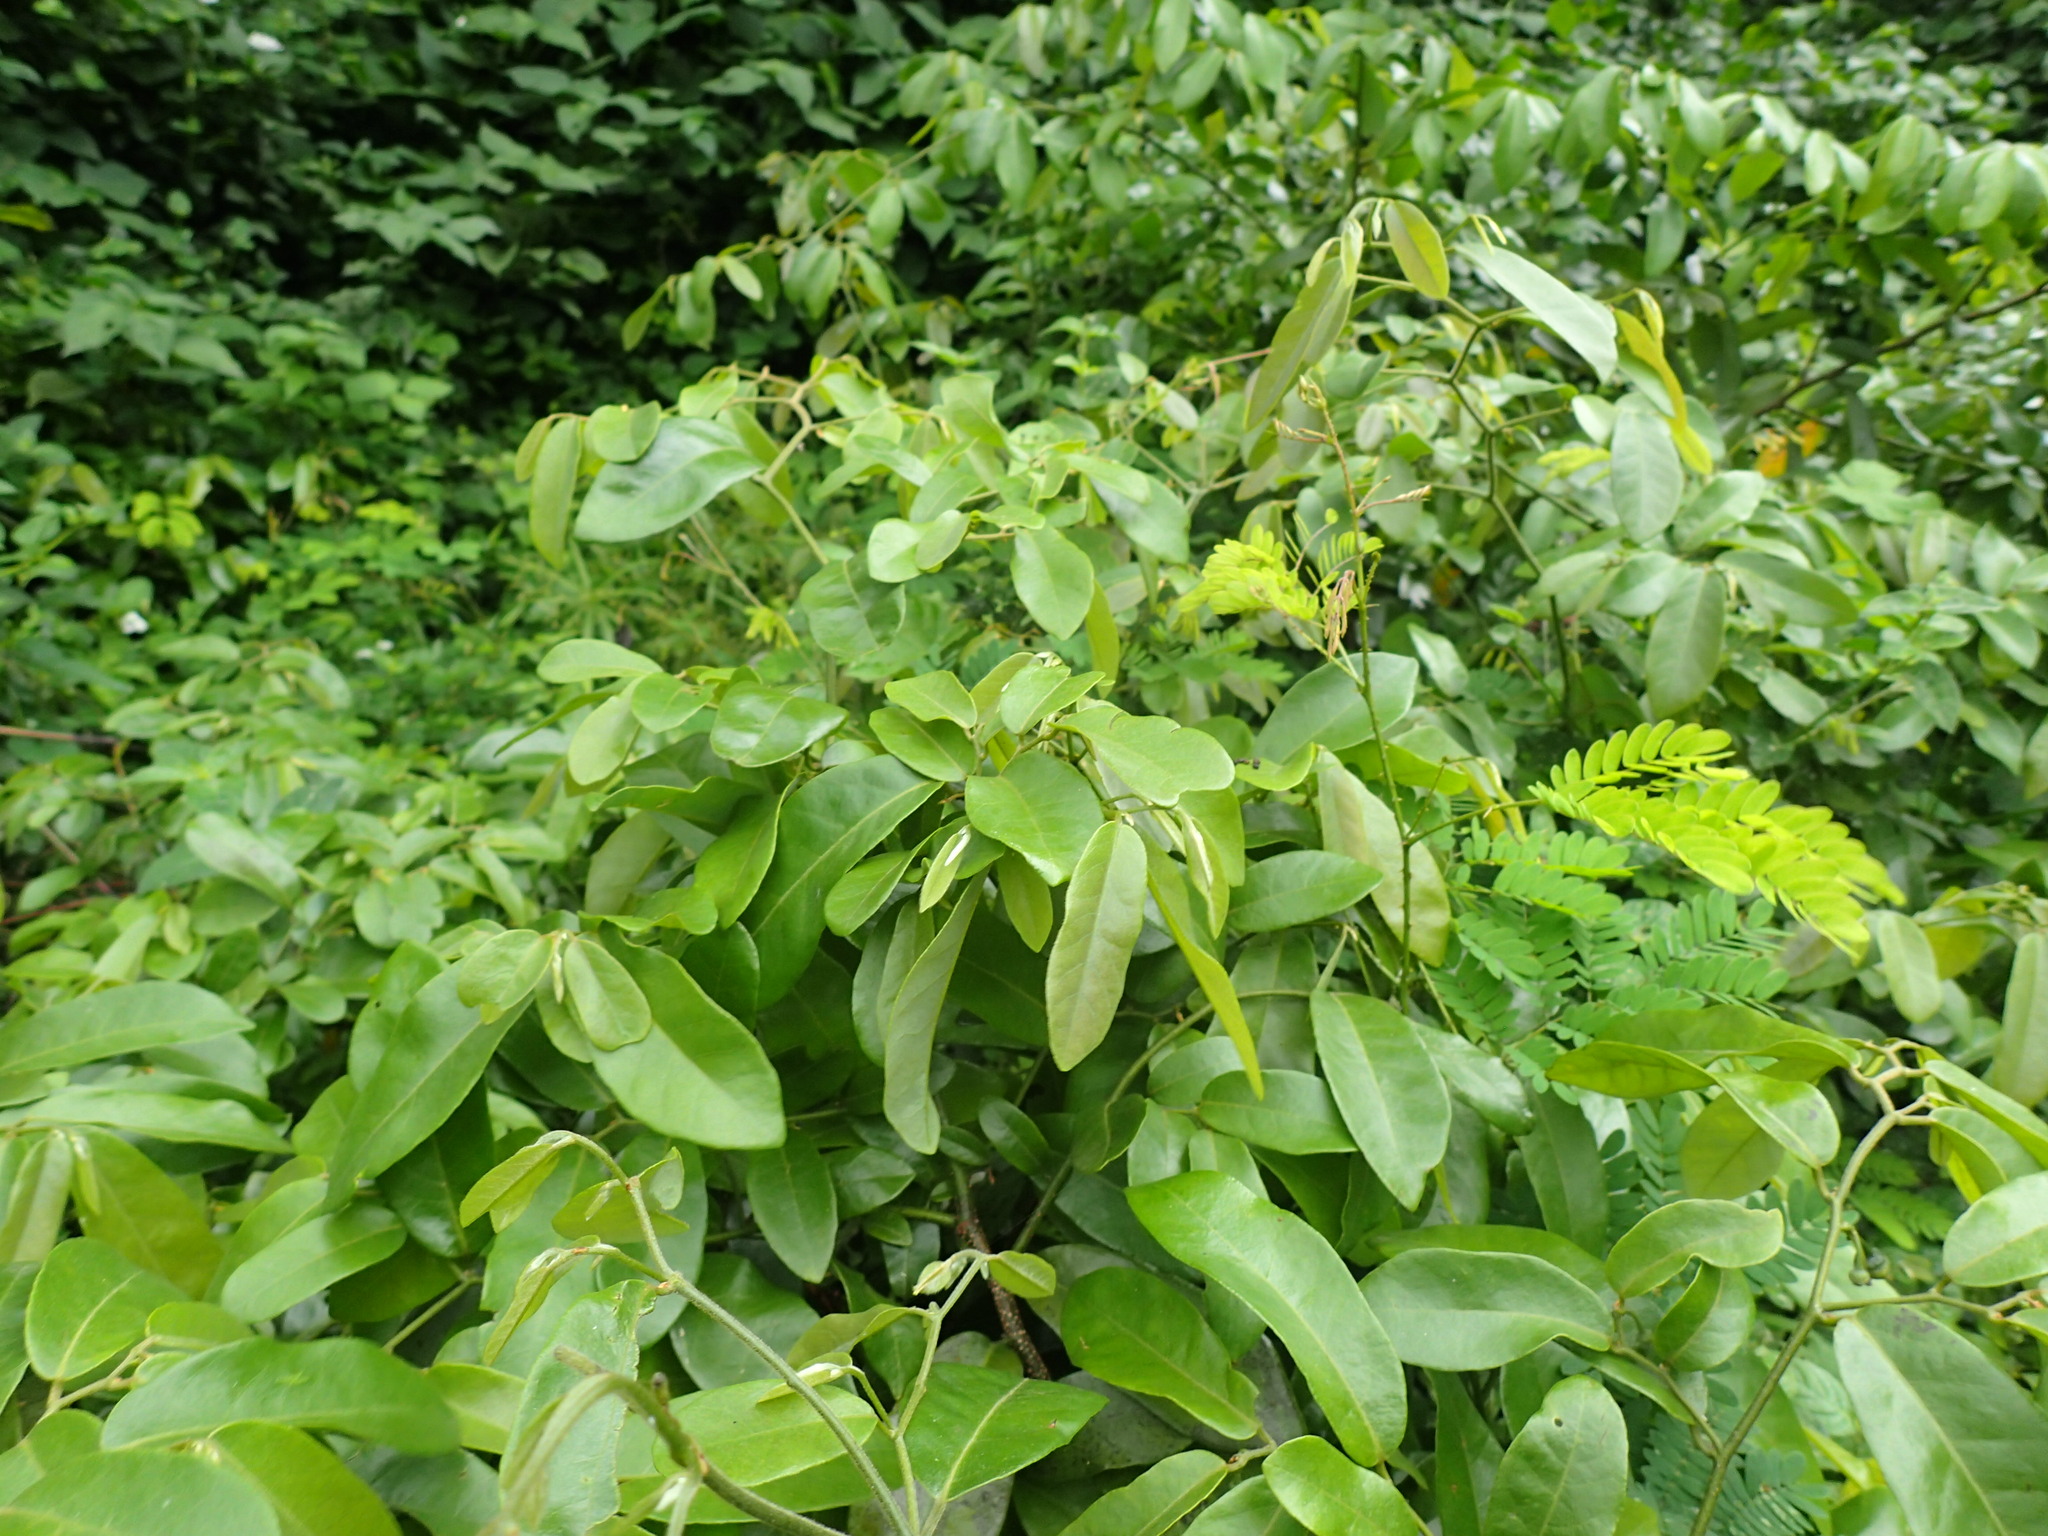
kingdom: Plantae
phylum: Tracheophyta
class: Magnoliopsida
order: Magnoliales
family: Annonaceae
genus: Monanthotaxis
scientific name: Monanthotaxis caffra
